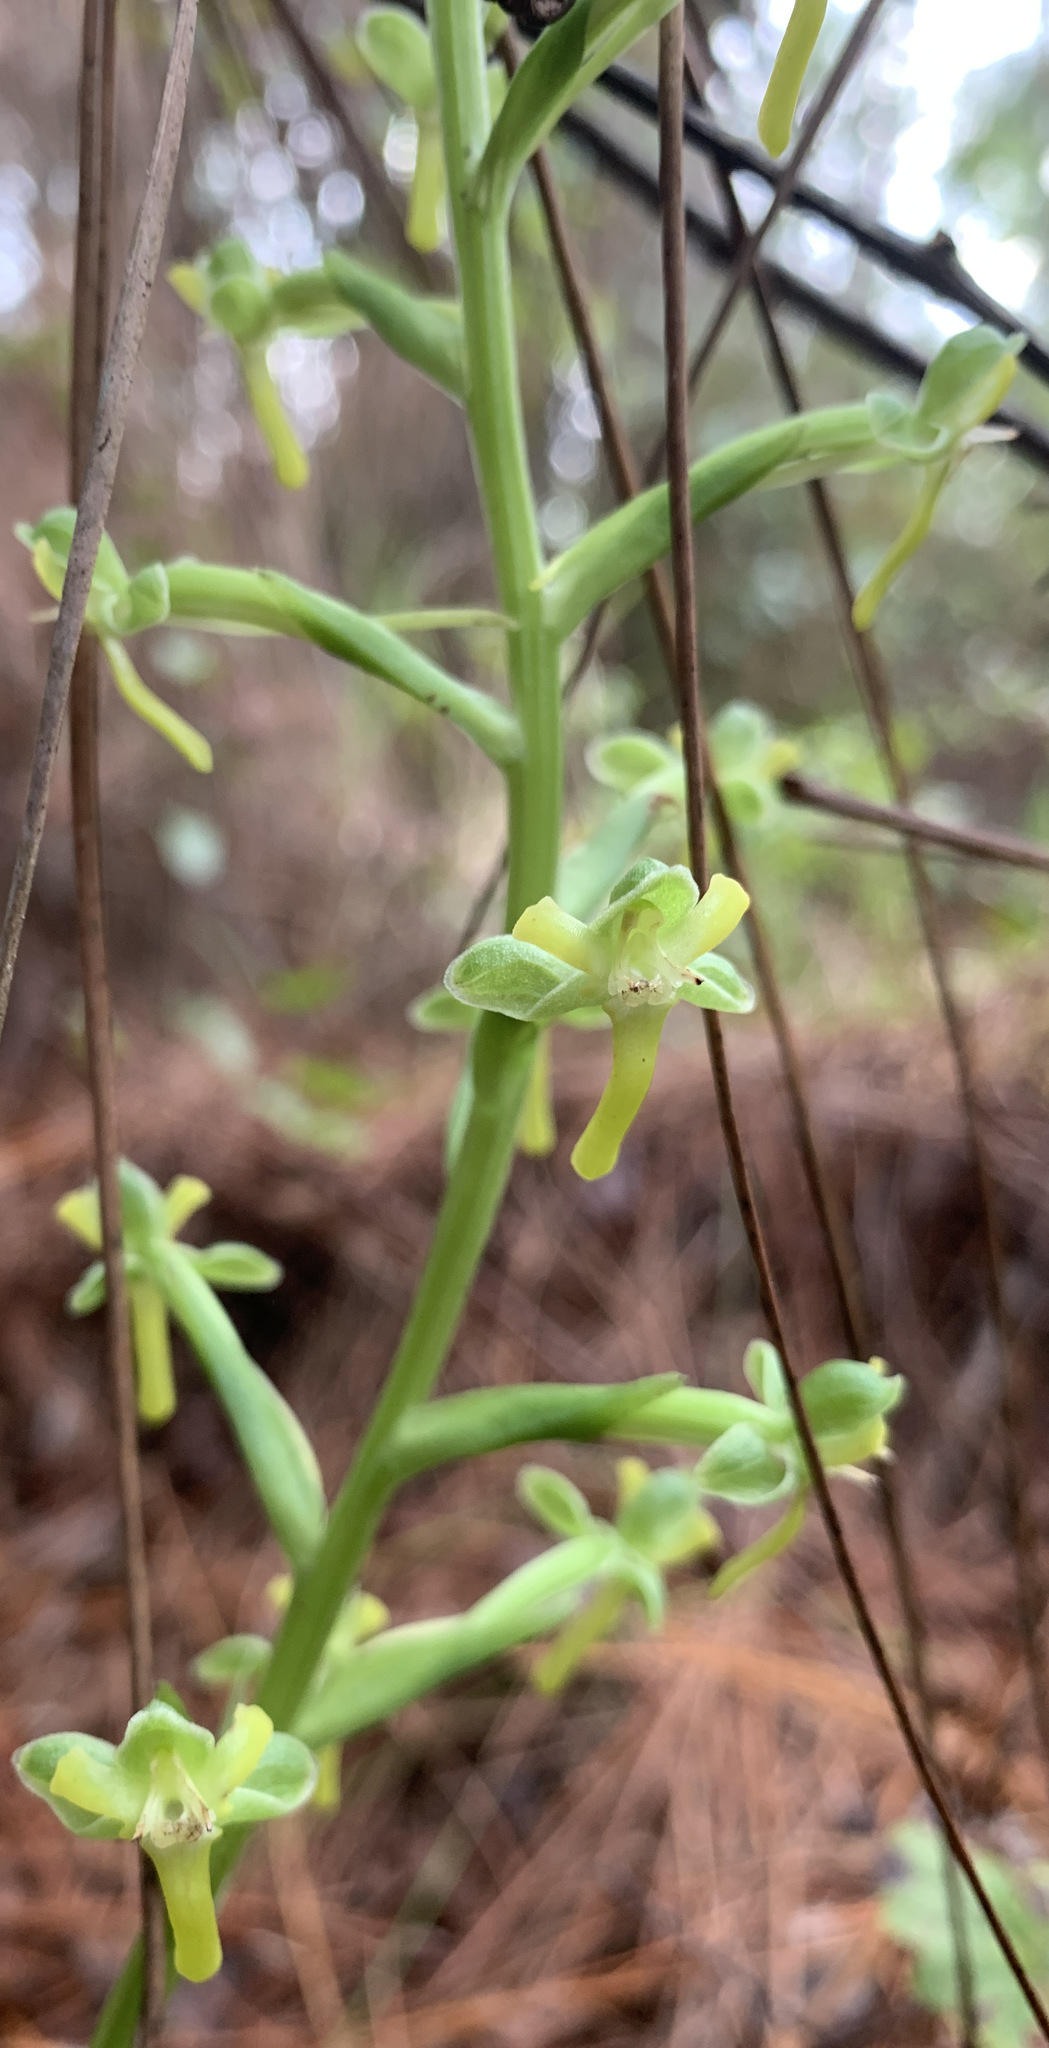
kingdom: Plantae
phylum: Tracheophyta
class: Liliopsida
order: Asparagales
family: Orchidaceae
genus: Habenaria
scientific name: Habenaria floribunda
